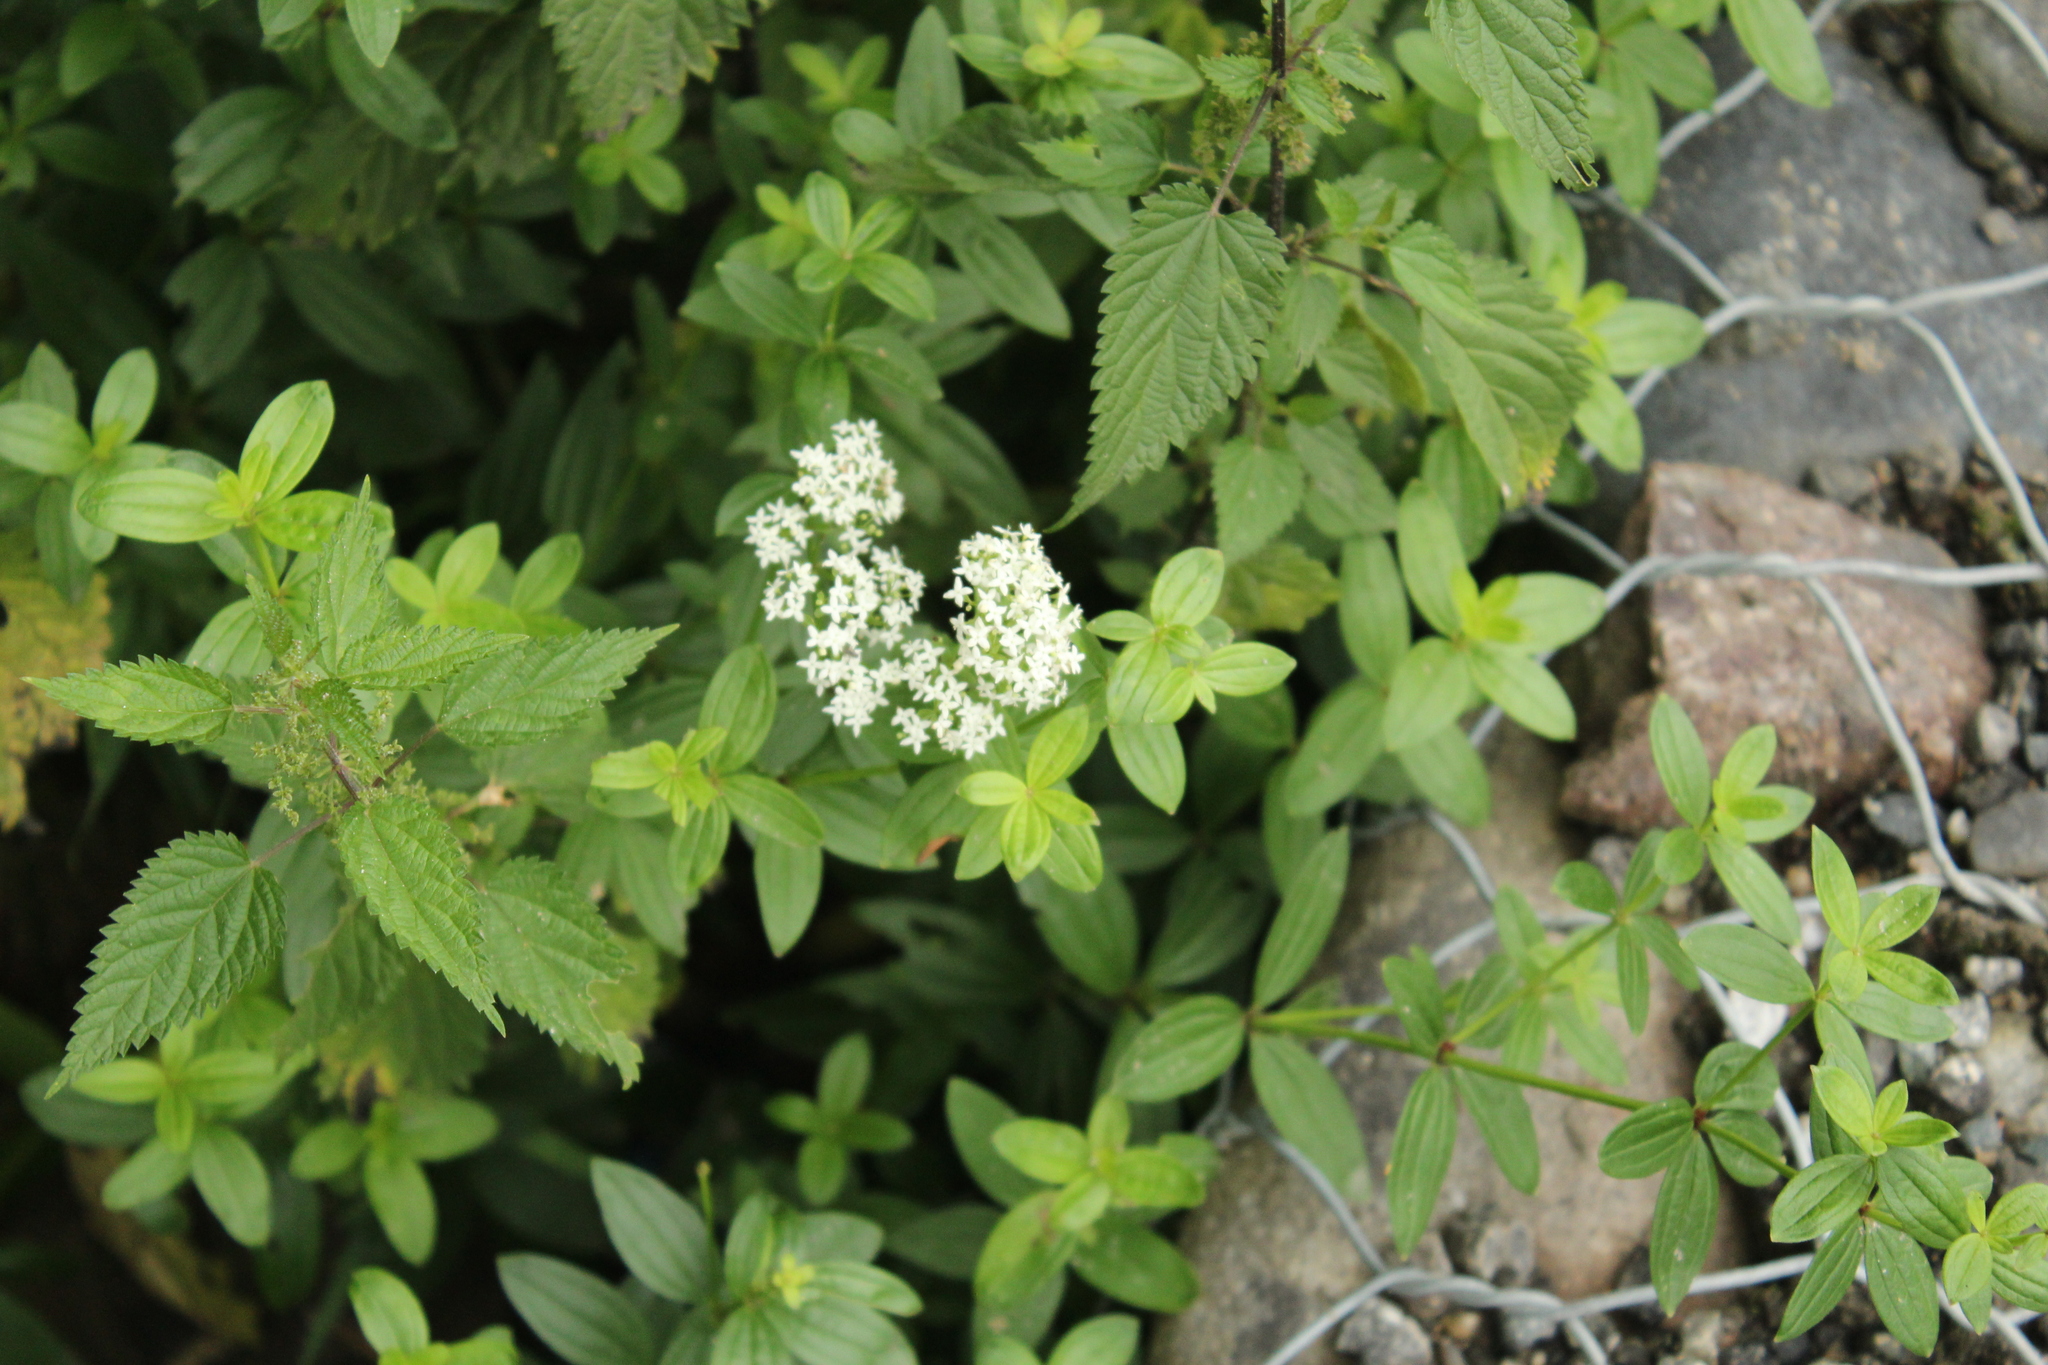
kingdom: Plantae
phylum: Tracheophyta
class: Magnoliopsida
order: Gentianales
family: Rubiaceae
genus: Galium
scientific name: Galium rubioides
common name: European bedstraw
